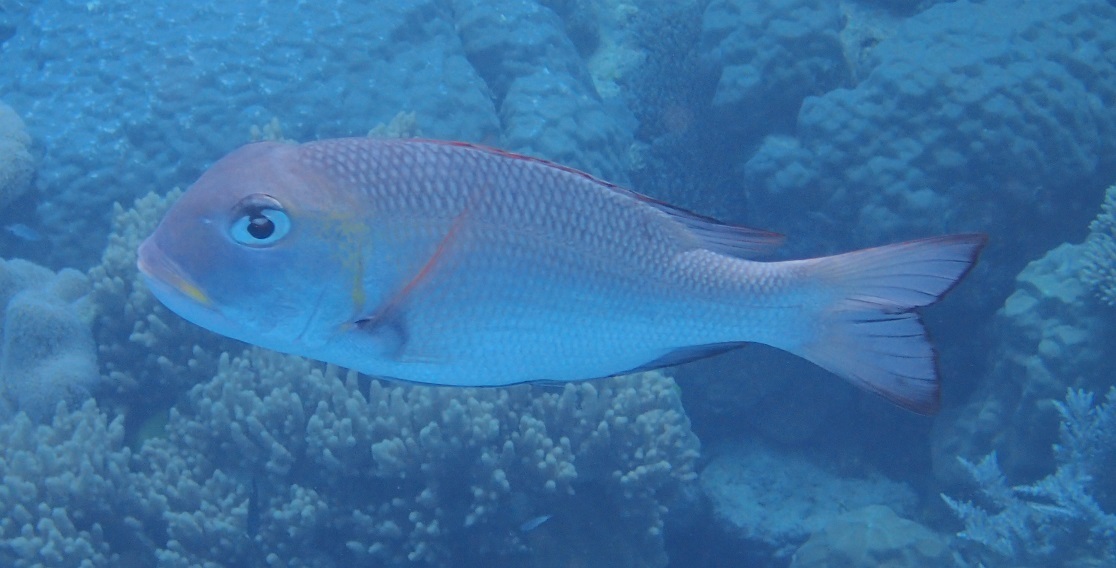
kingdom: Animalia
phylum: Chordata
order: Perciformes
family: Lethrinidae
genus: Monotaxis
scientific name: Monotaxis grandoculis
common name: Bigeye emperor
